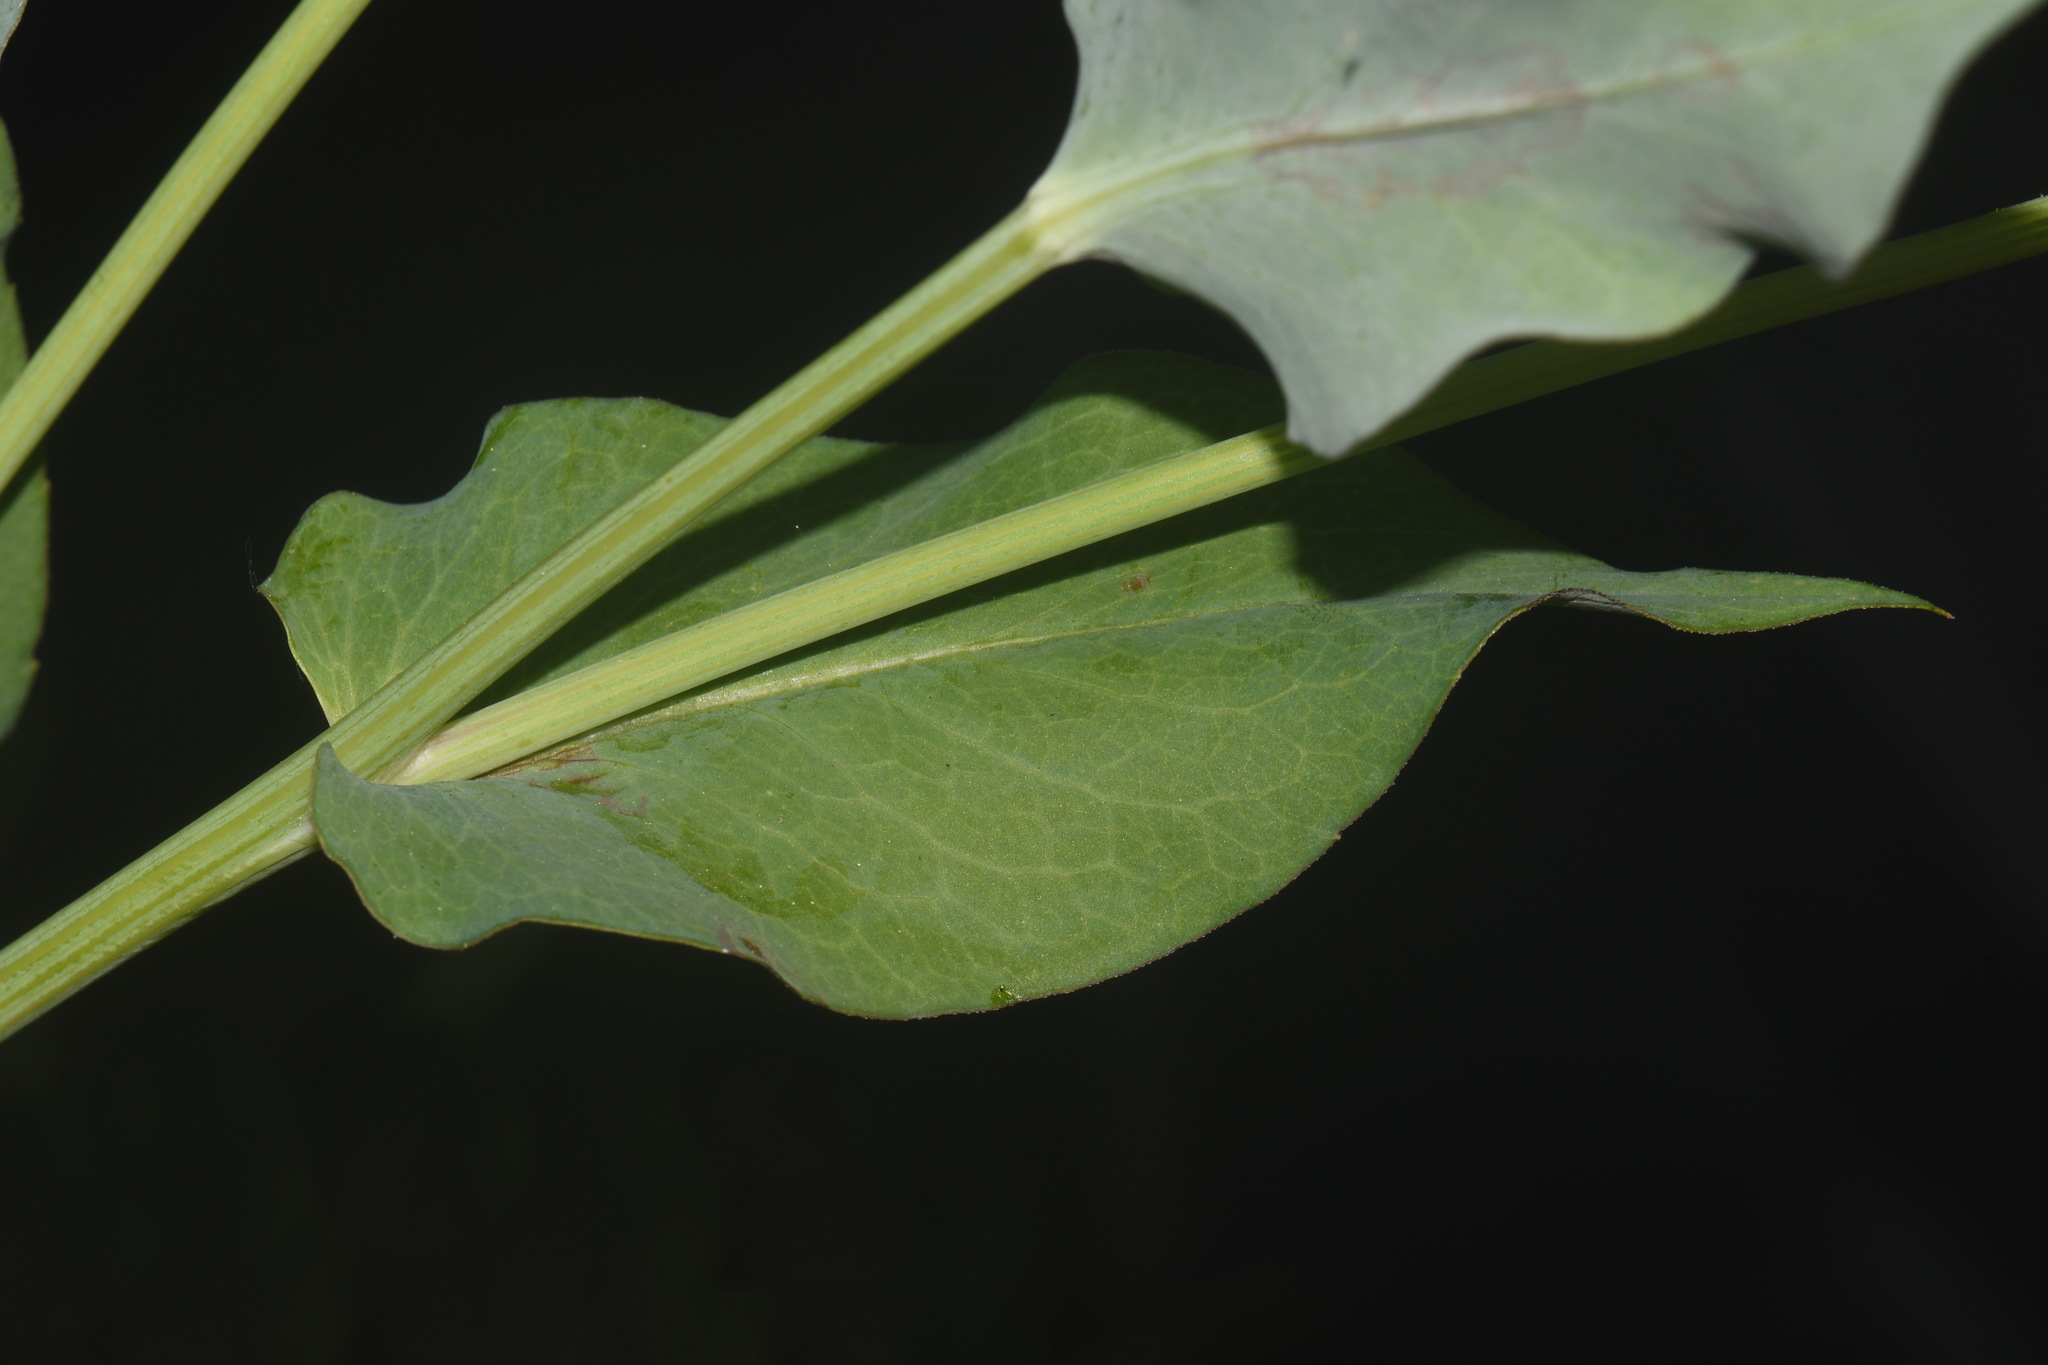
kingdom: Plantae
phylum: Tracheophyta
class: Magnoliopsida
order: Asterales
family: Asteraceae
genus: Rudbeckia
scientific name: Rudbeckia amplexicaulis
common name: Clasping-leaf coneflower
